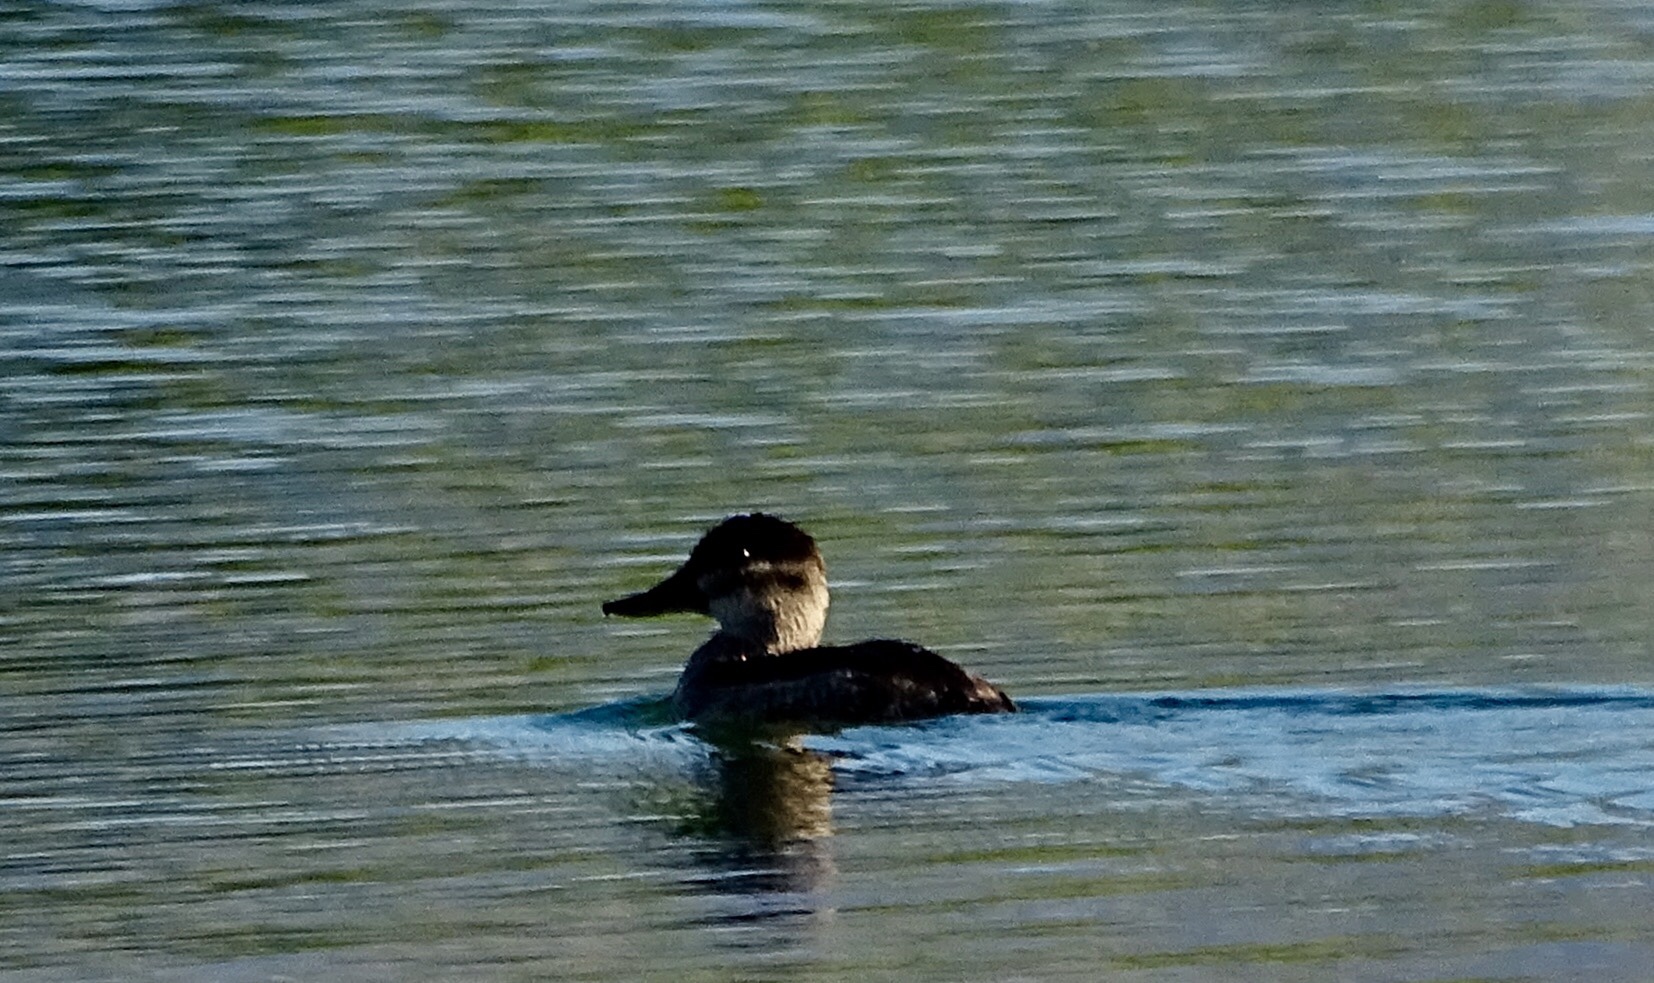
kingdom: Animalia
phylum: Chordata
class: Aves
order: Anseriformes
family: Anatidae
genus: Oxyura
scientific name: Oxyura jamaicensis
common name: Ruddy duck
